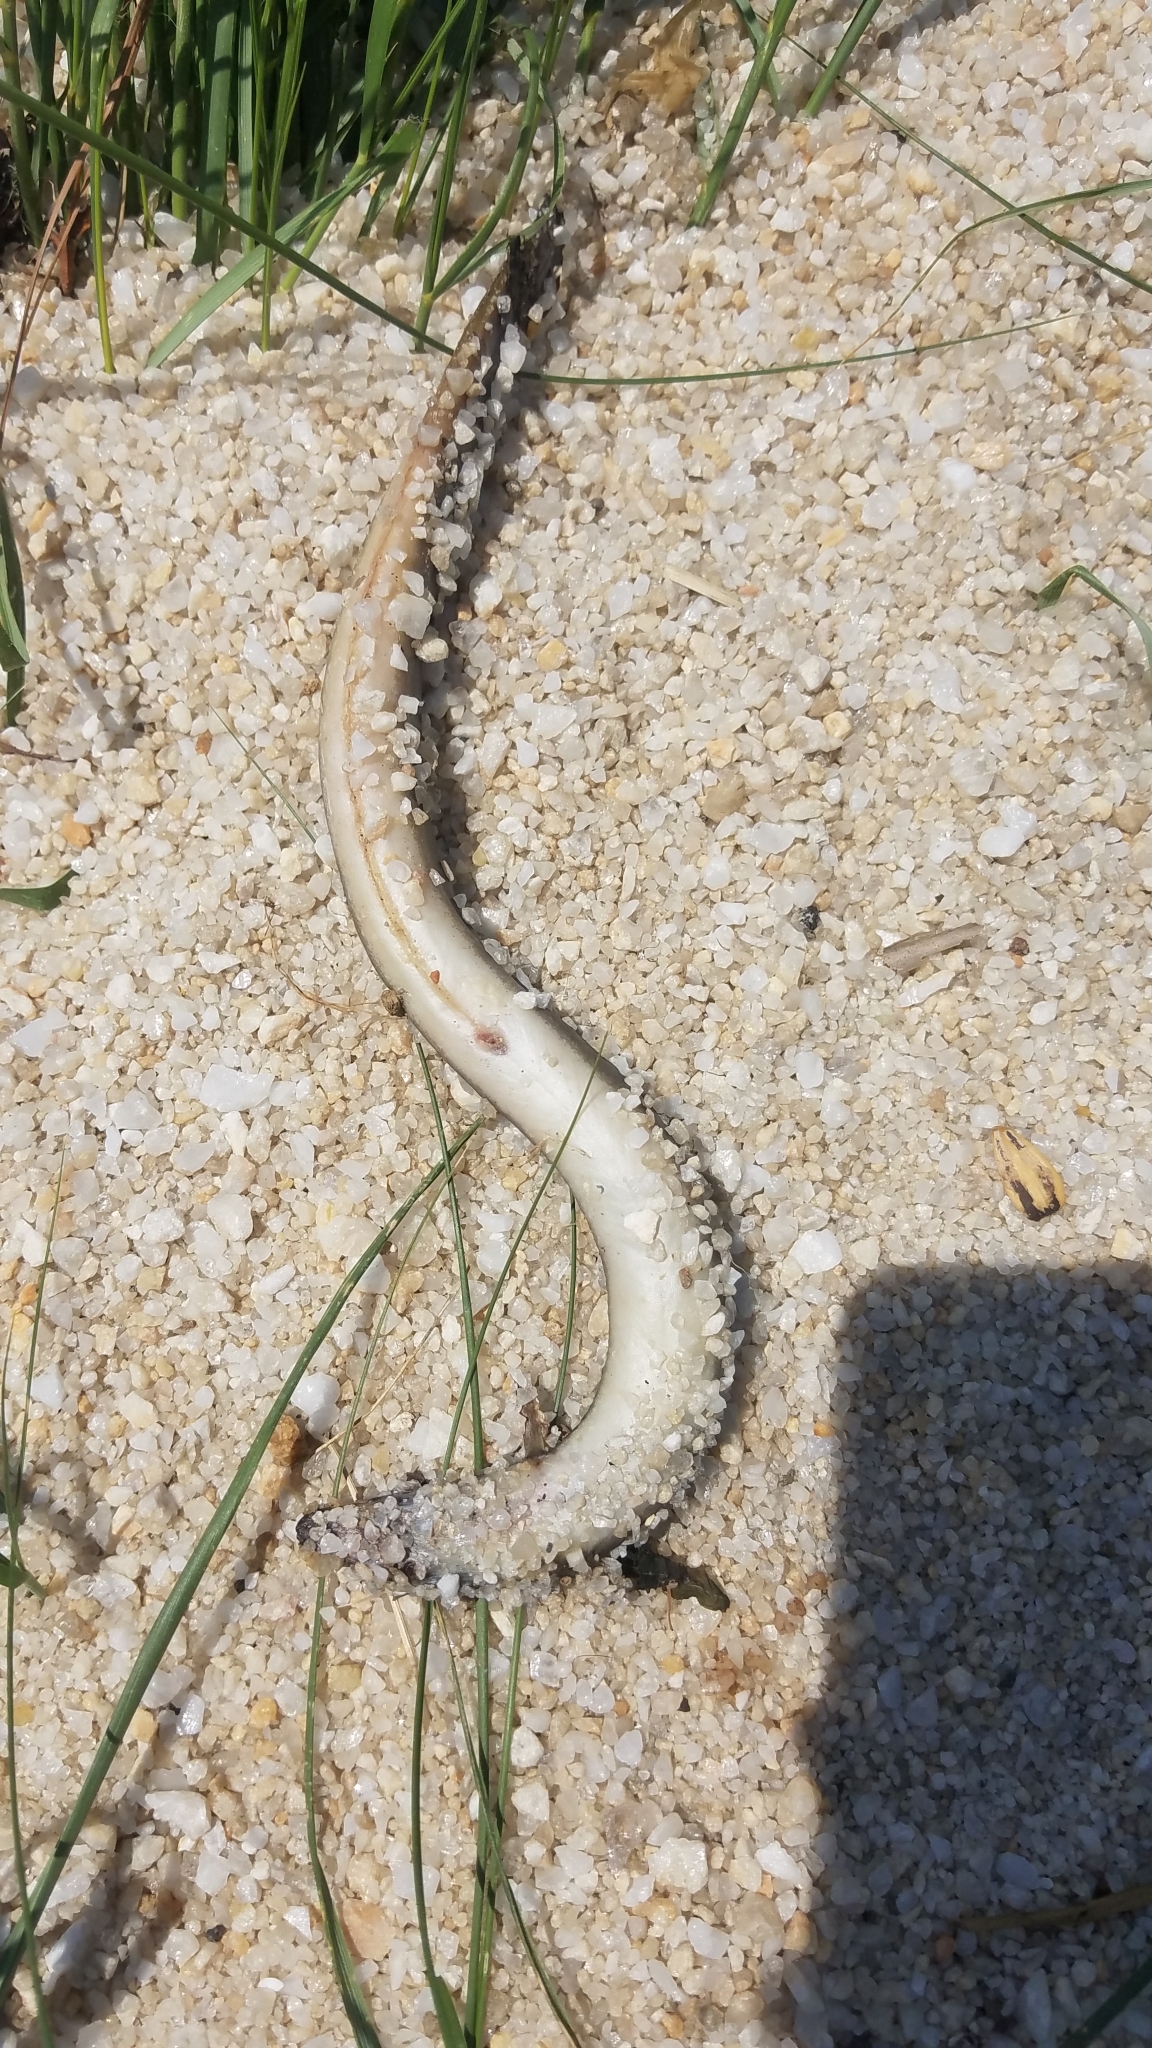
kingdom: Animalia
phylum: Chordata
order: Anguilliformes
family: Anguillidae
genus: Anguilla
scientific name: Anguilla rostrata
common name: American eel
